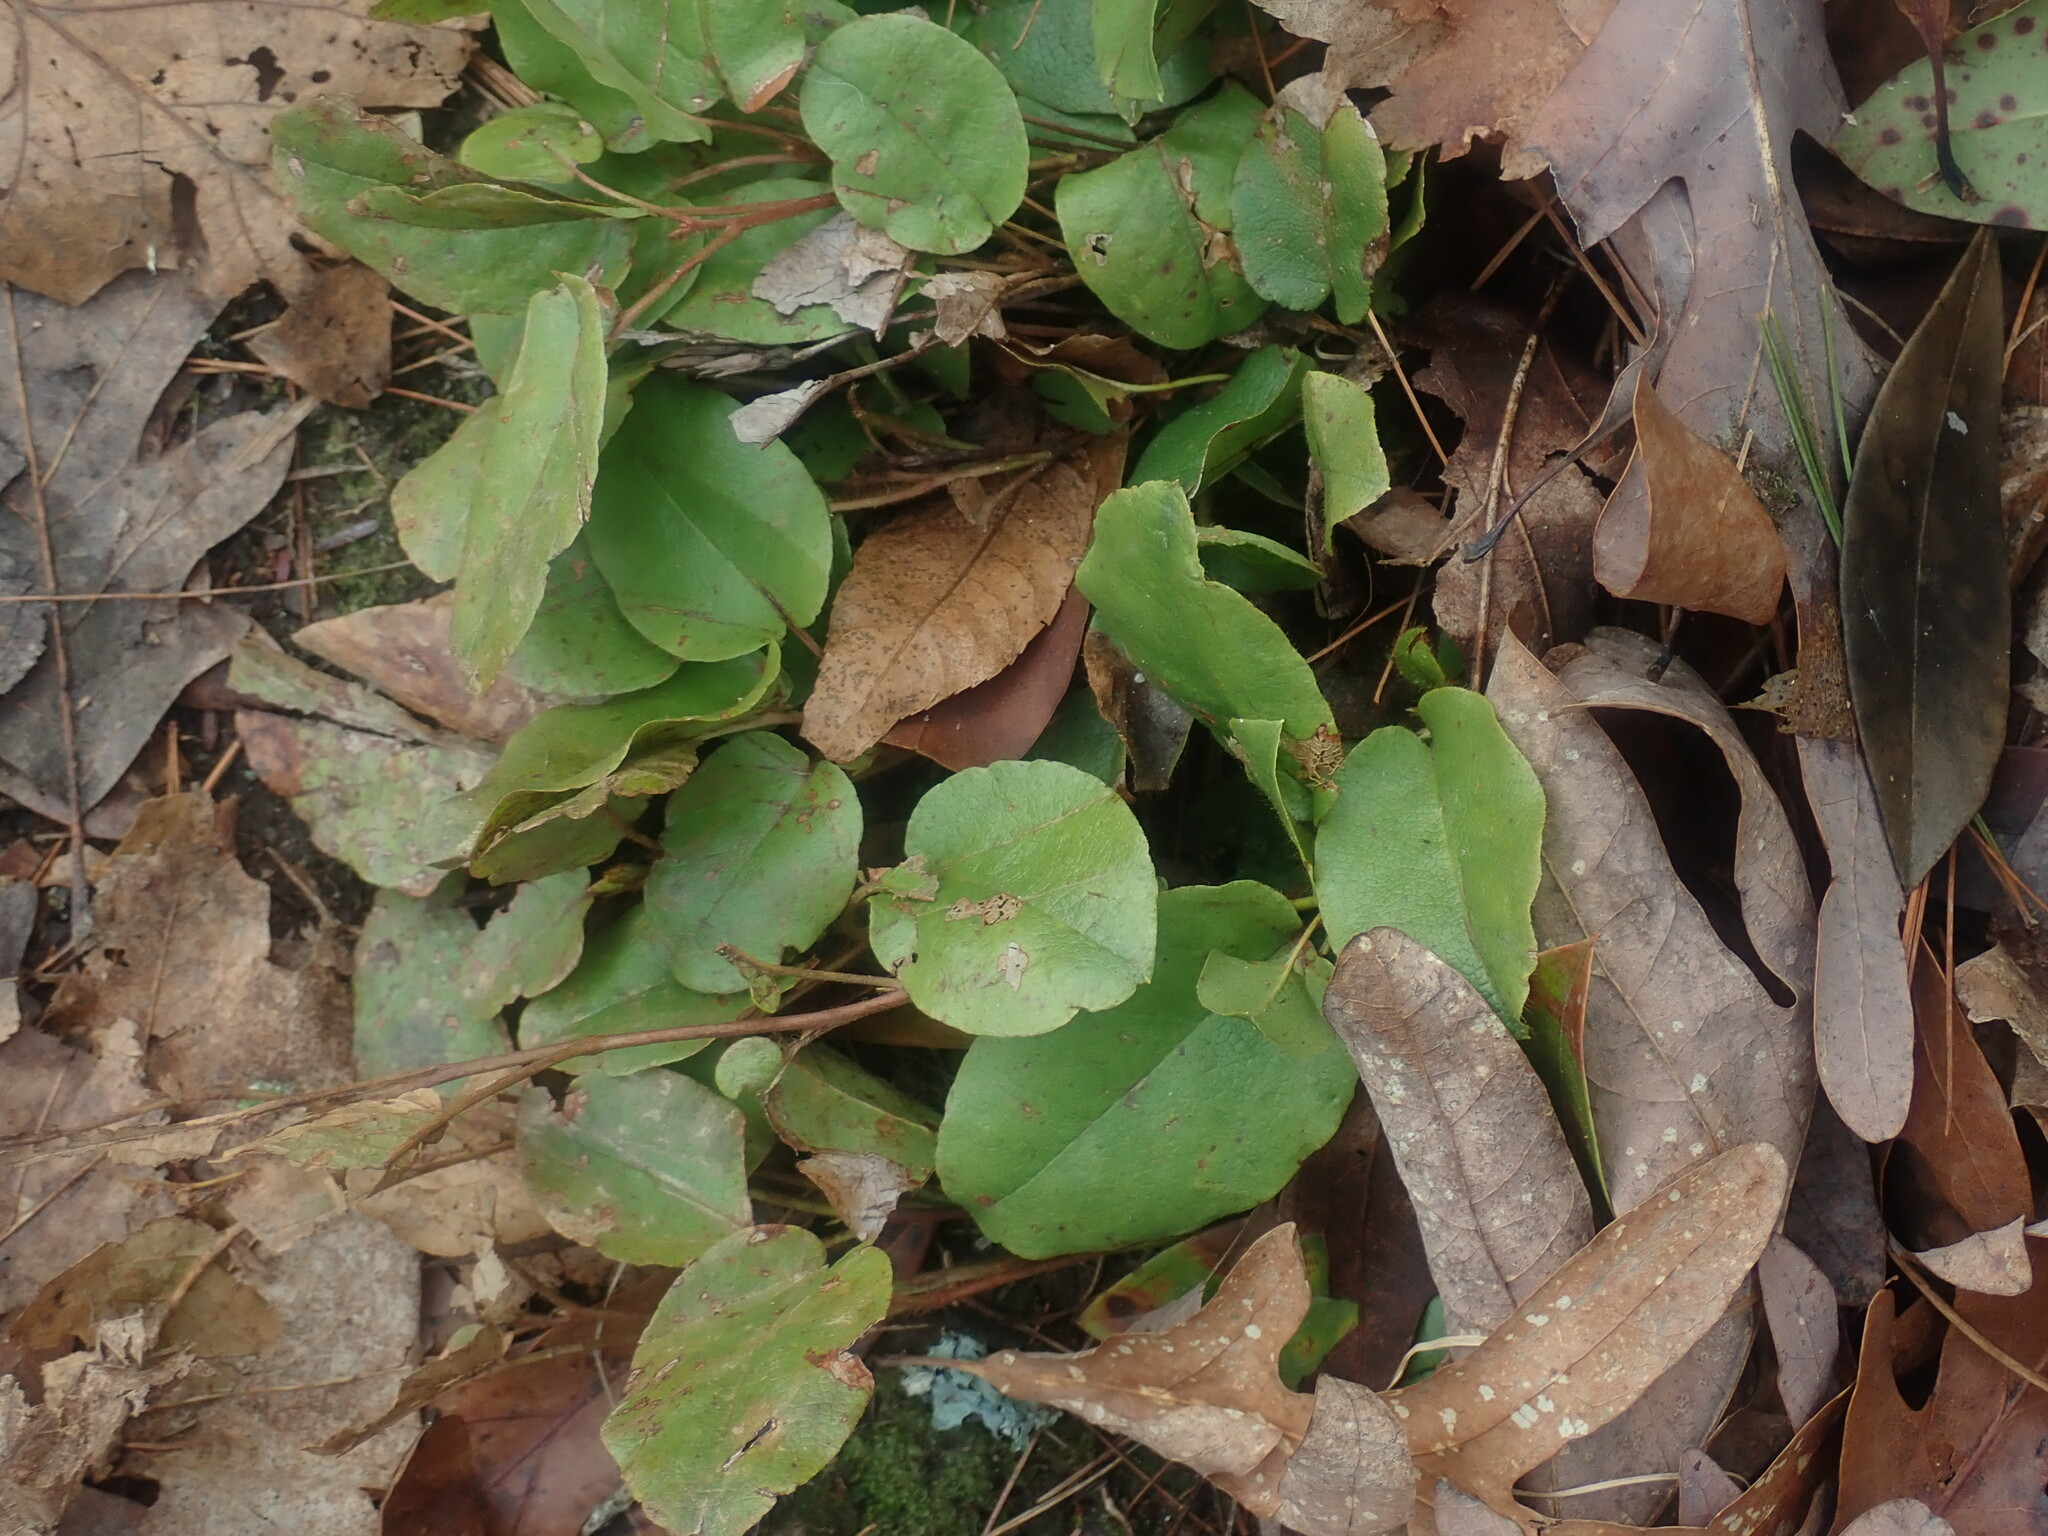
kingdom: Plantae
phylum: Tracheophyta
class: Magnoliopsida
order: Ericales
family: Ericaceae
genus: Epigaea
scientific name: Epigaea repens
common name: Gravelroot
